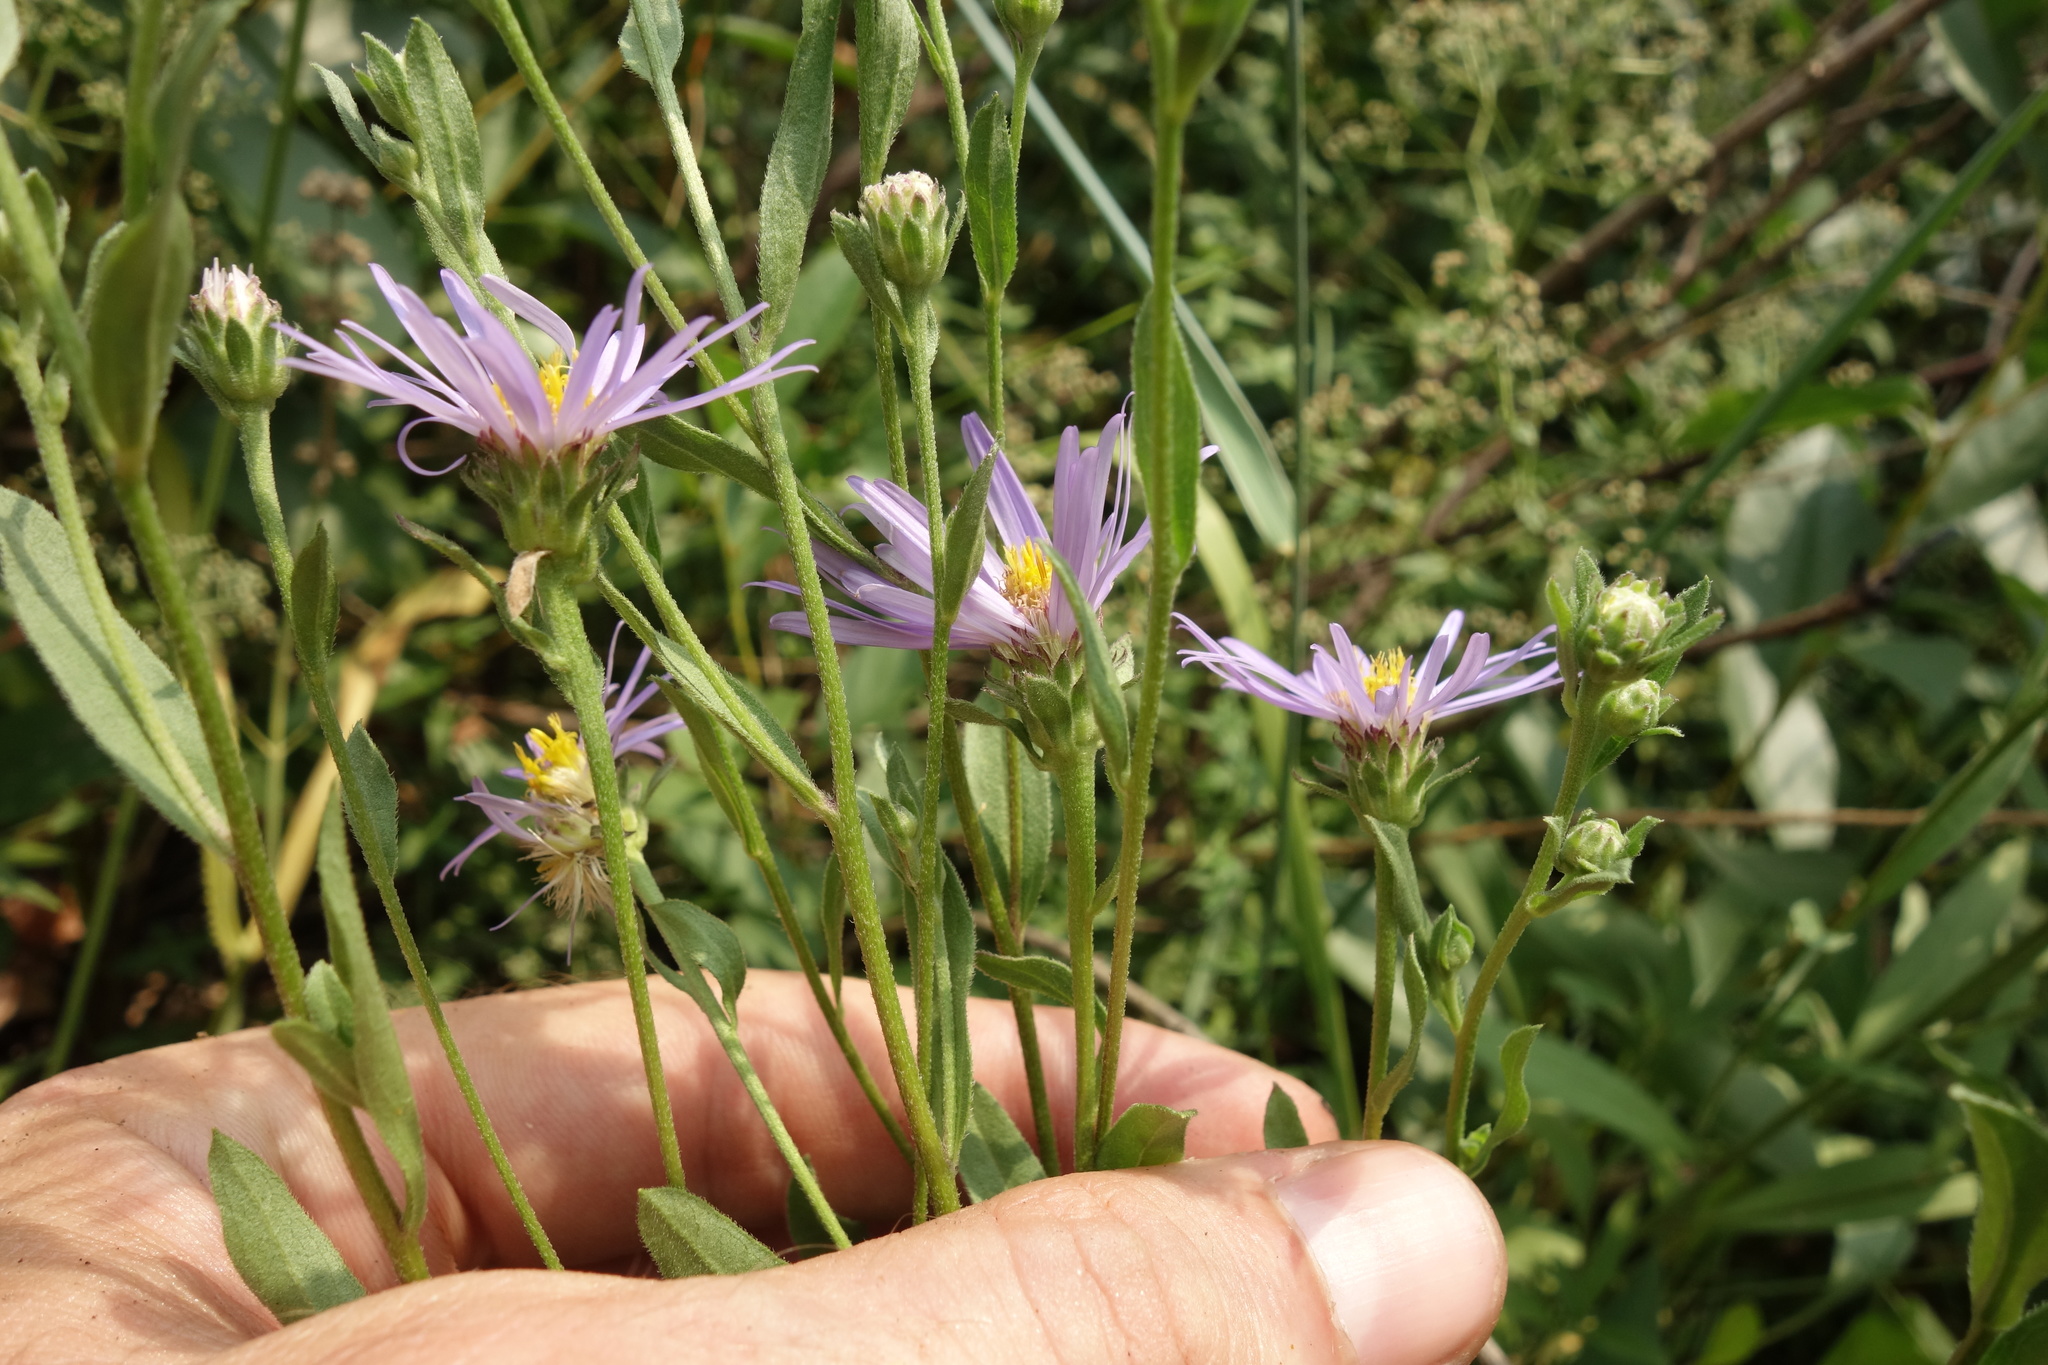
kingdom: Plantae
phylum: Tracheophyta
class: Magnoliopsida
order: Asterales
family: Asteraceae
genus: Aster
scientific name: Aster amellus
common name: European michaelmas daisy
